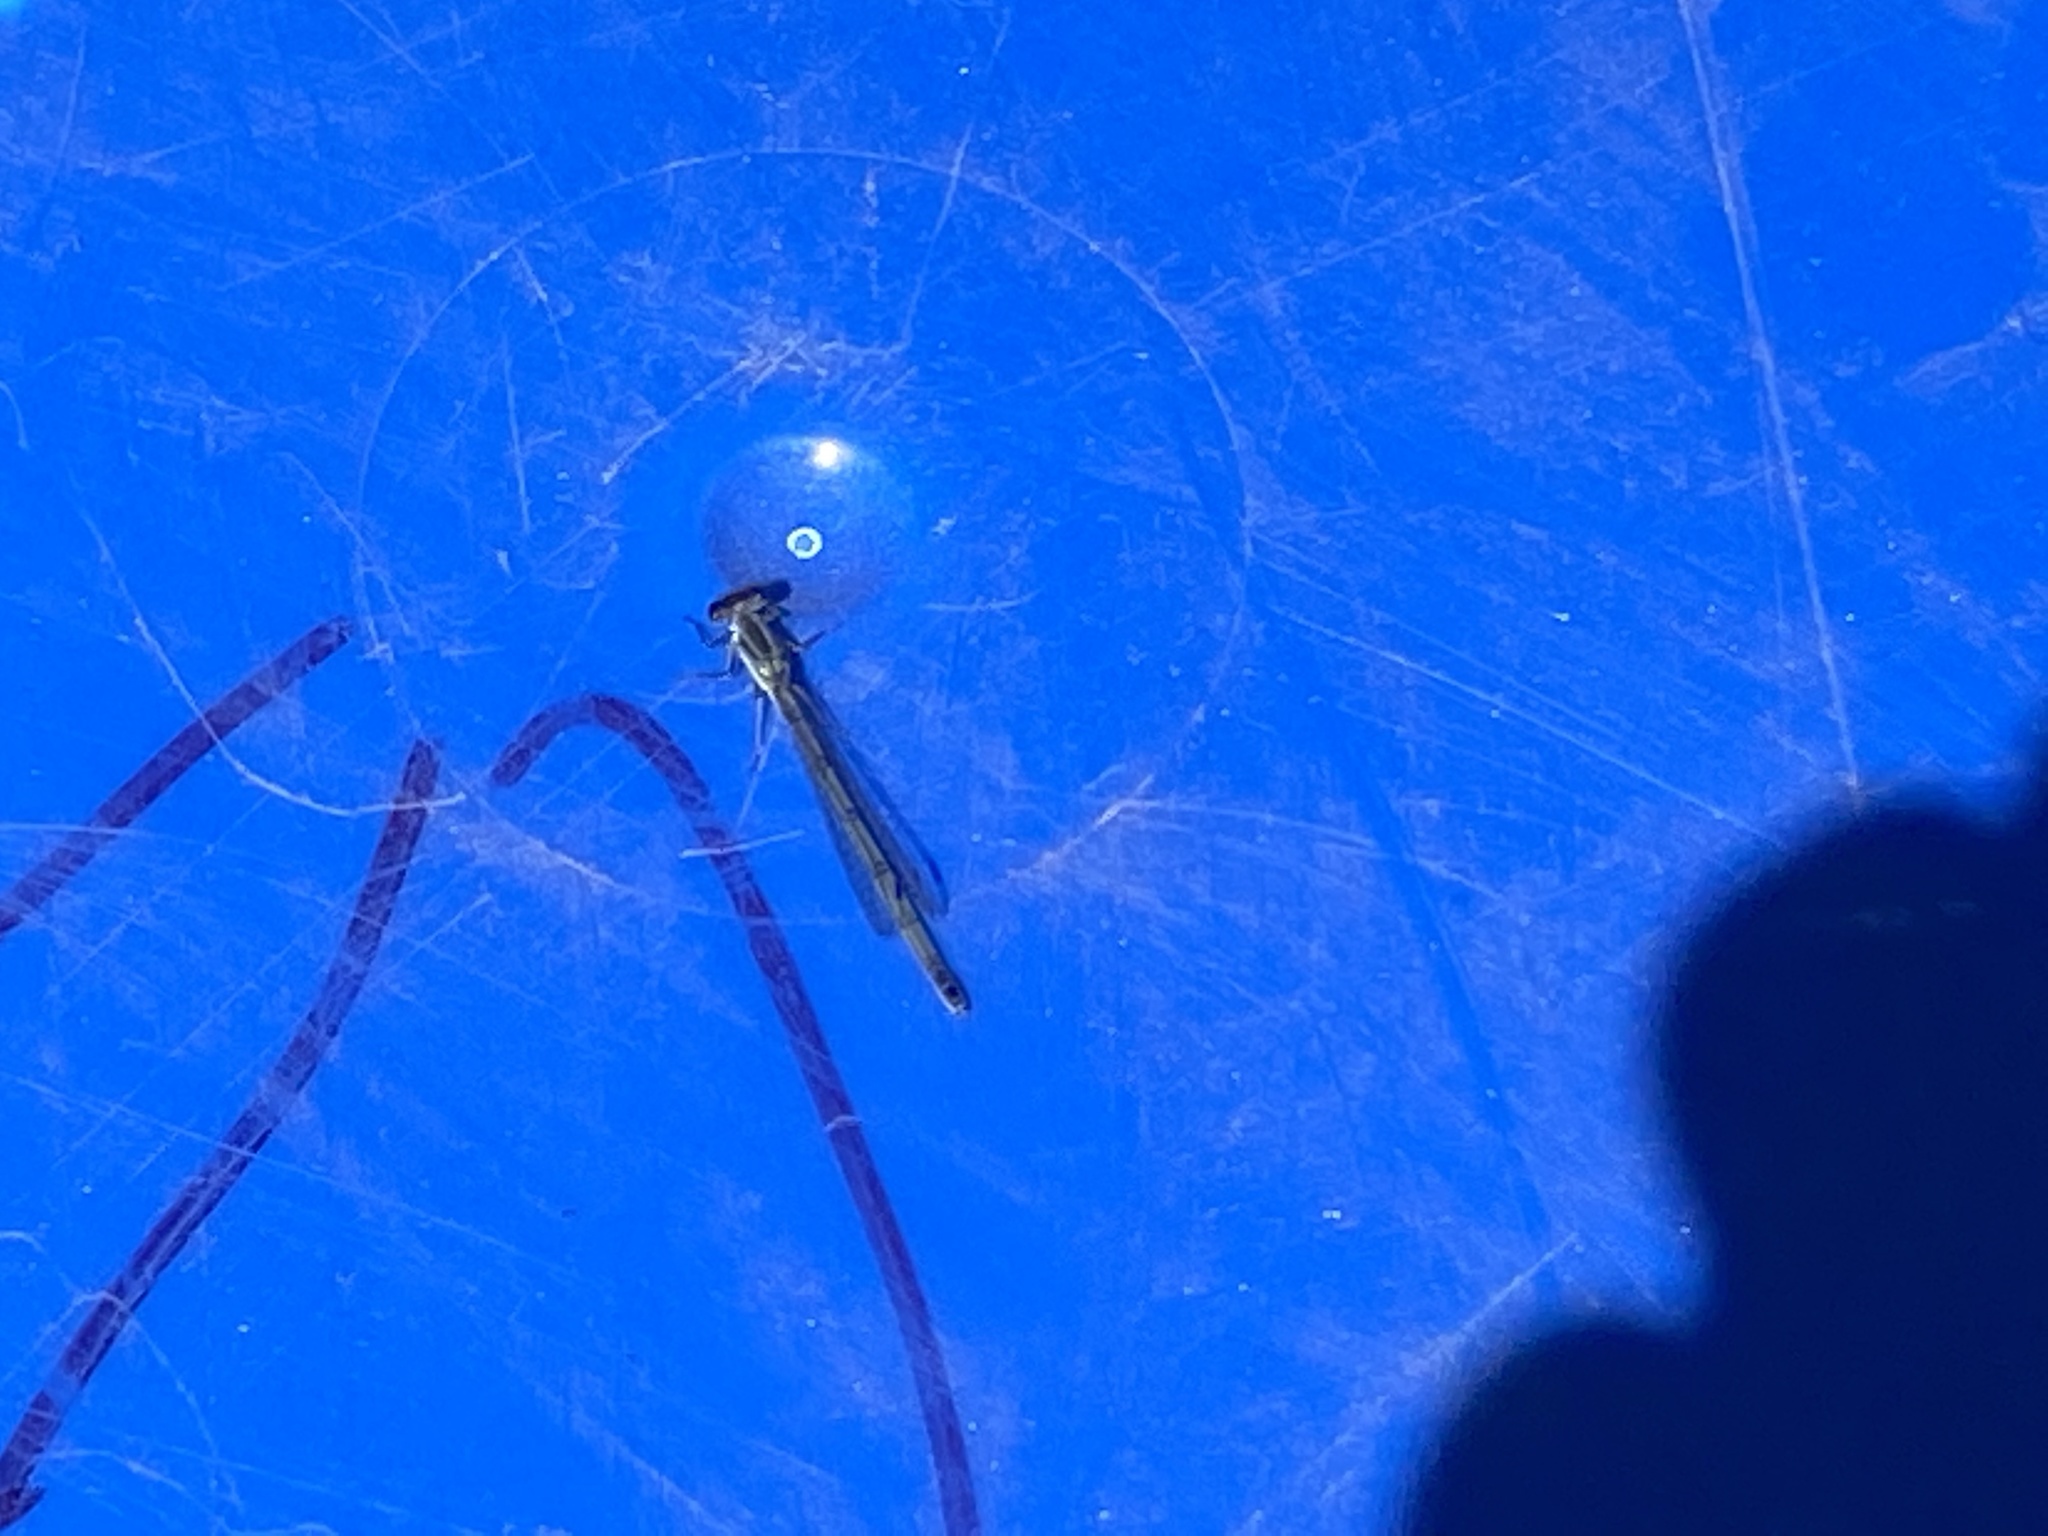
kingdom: Animalia
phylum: Arthropoda
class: Insecta
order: Odonata
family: Coenagrionidae
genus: Ischnura
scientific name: Ischnura verticalis
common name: Eastern forktail
